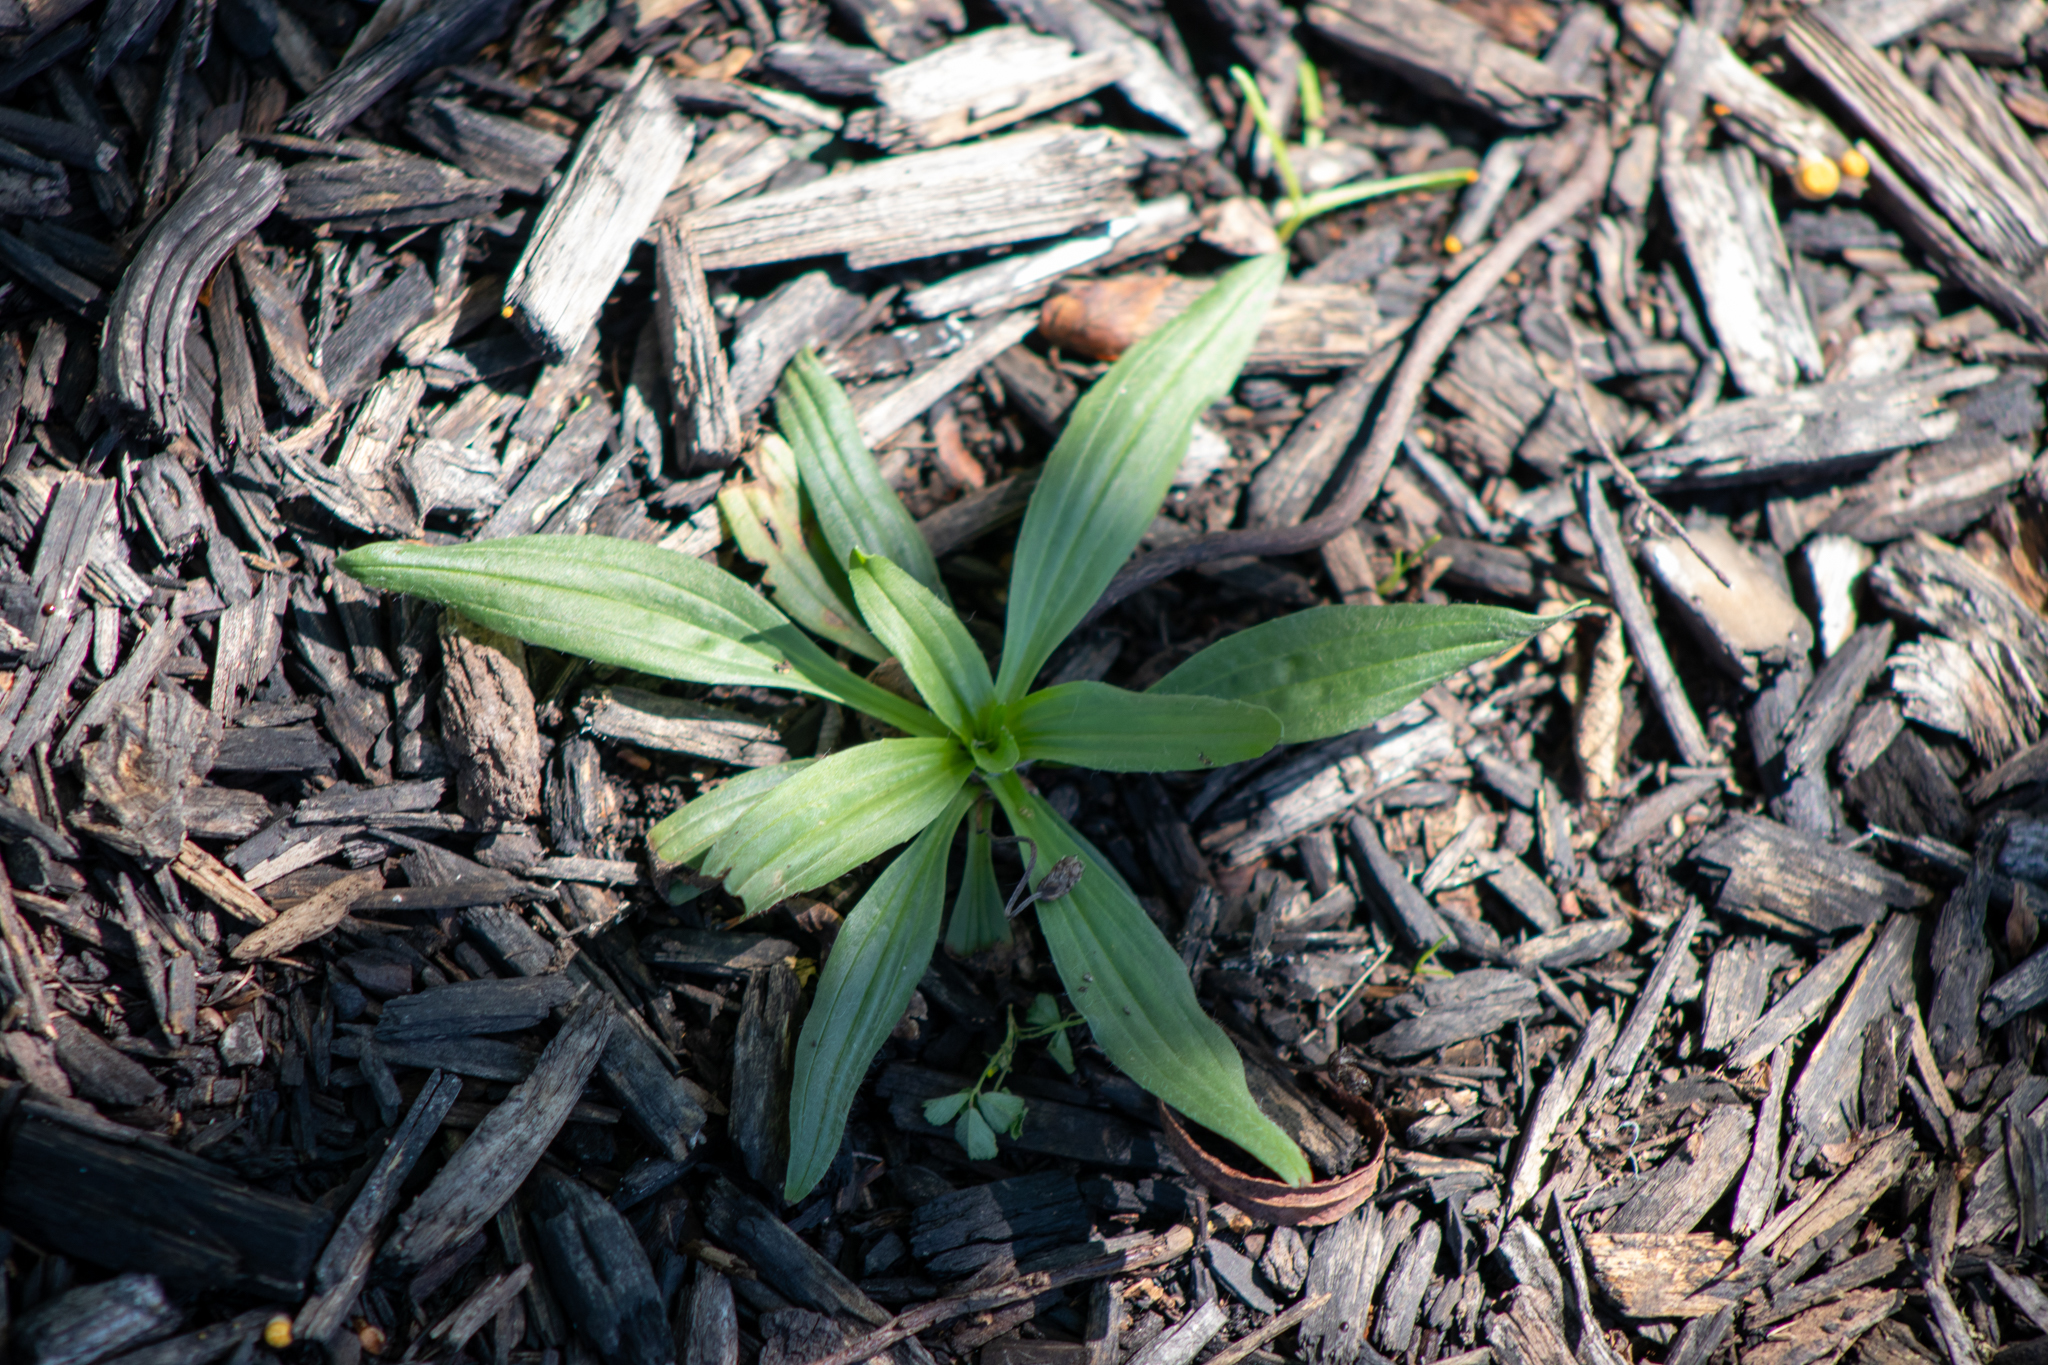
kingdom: Plantae
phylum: Tracheophyta
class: Magnoliopsida
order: Lamiales
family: Plantaginaceae
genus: Plantago
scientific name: Plantago lanceolata
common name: Ribwort plantain
